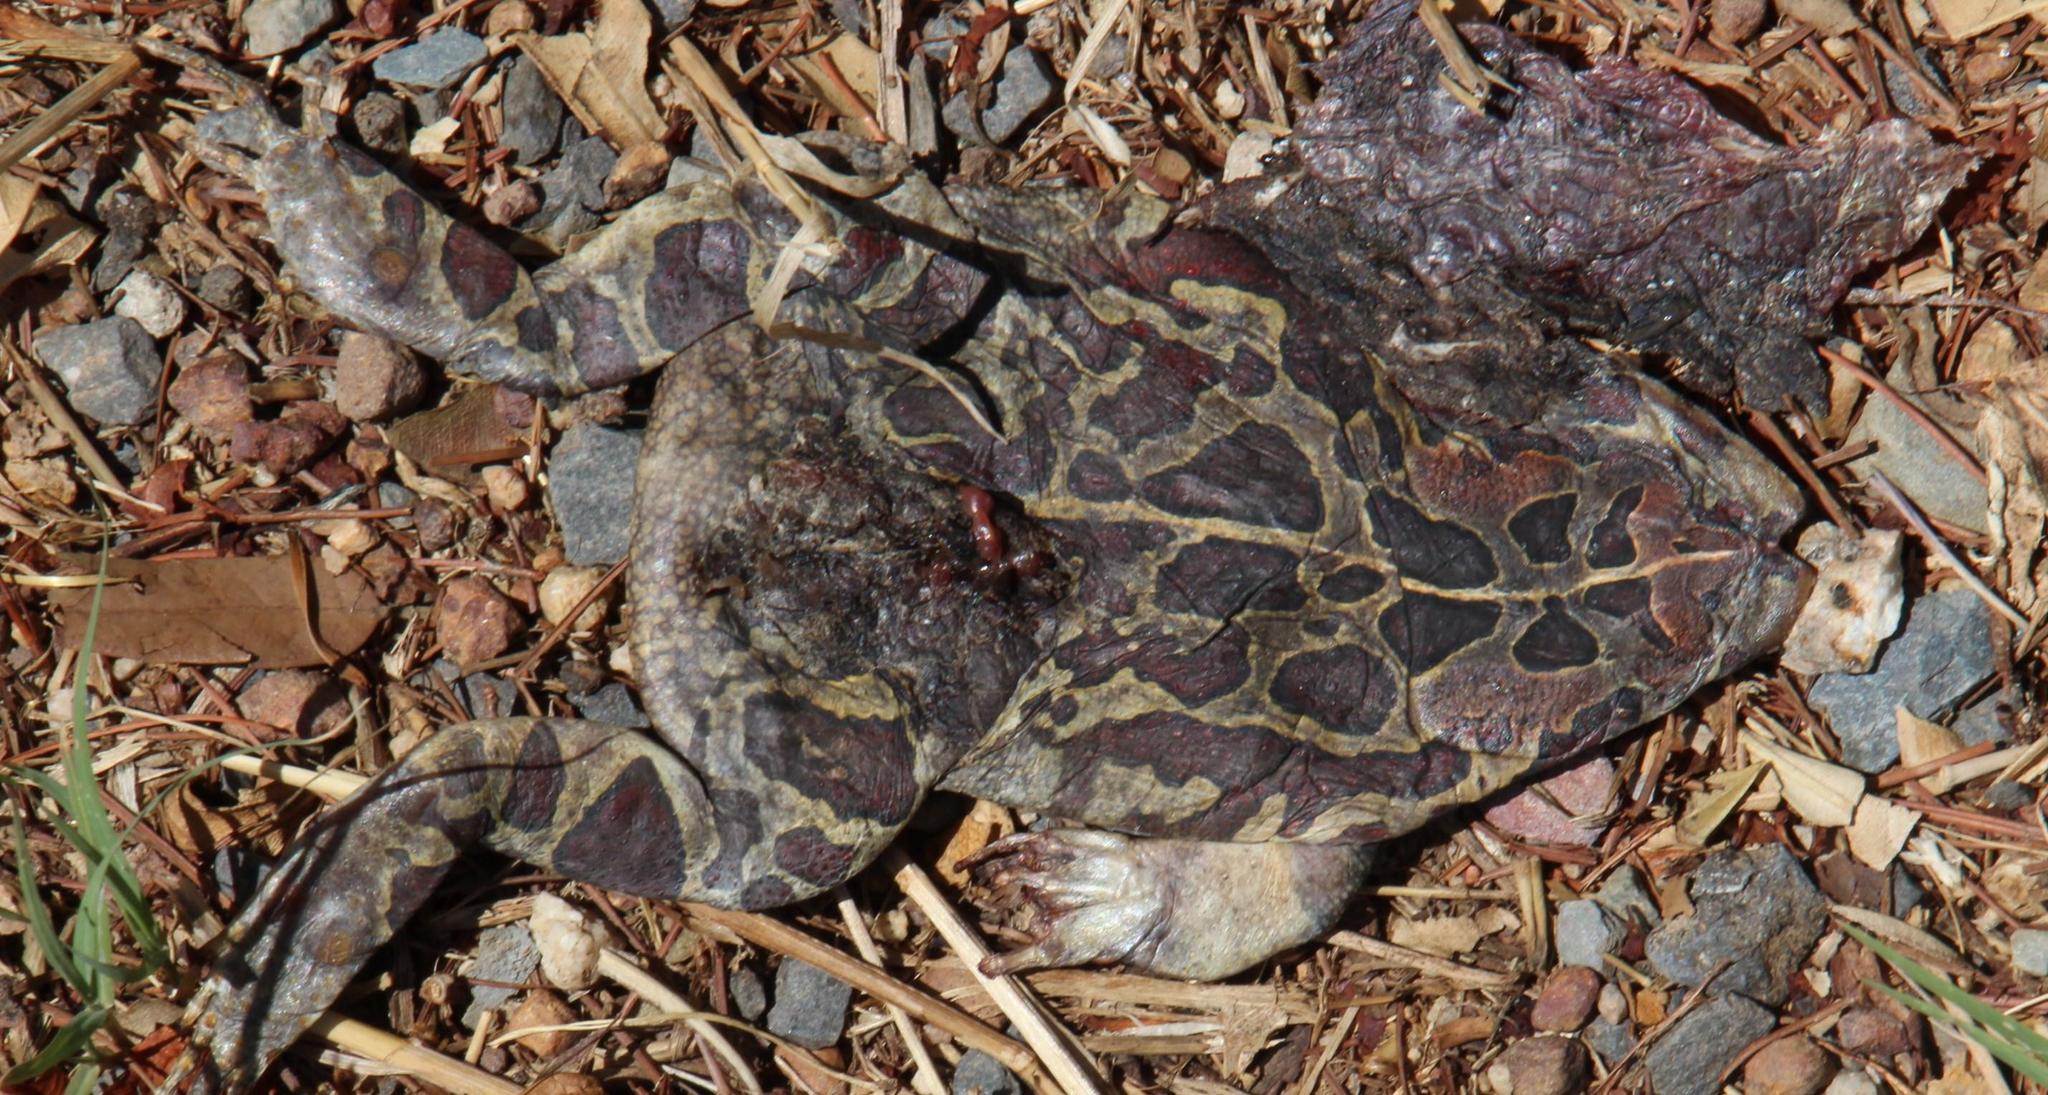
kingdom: Animalia
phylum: Chordata
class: Amphibia
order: Anura
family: Bufonidae
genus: Sclerophrys
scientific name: Sclerophrys pantherina
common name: Panther toad
